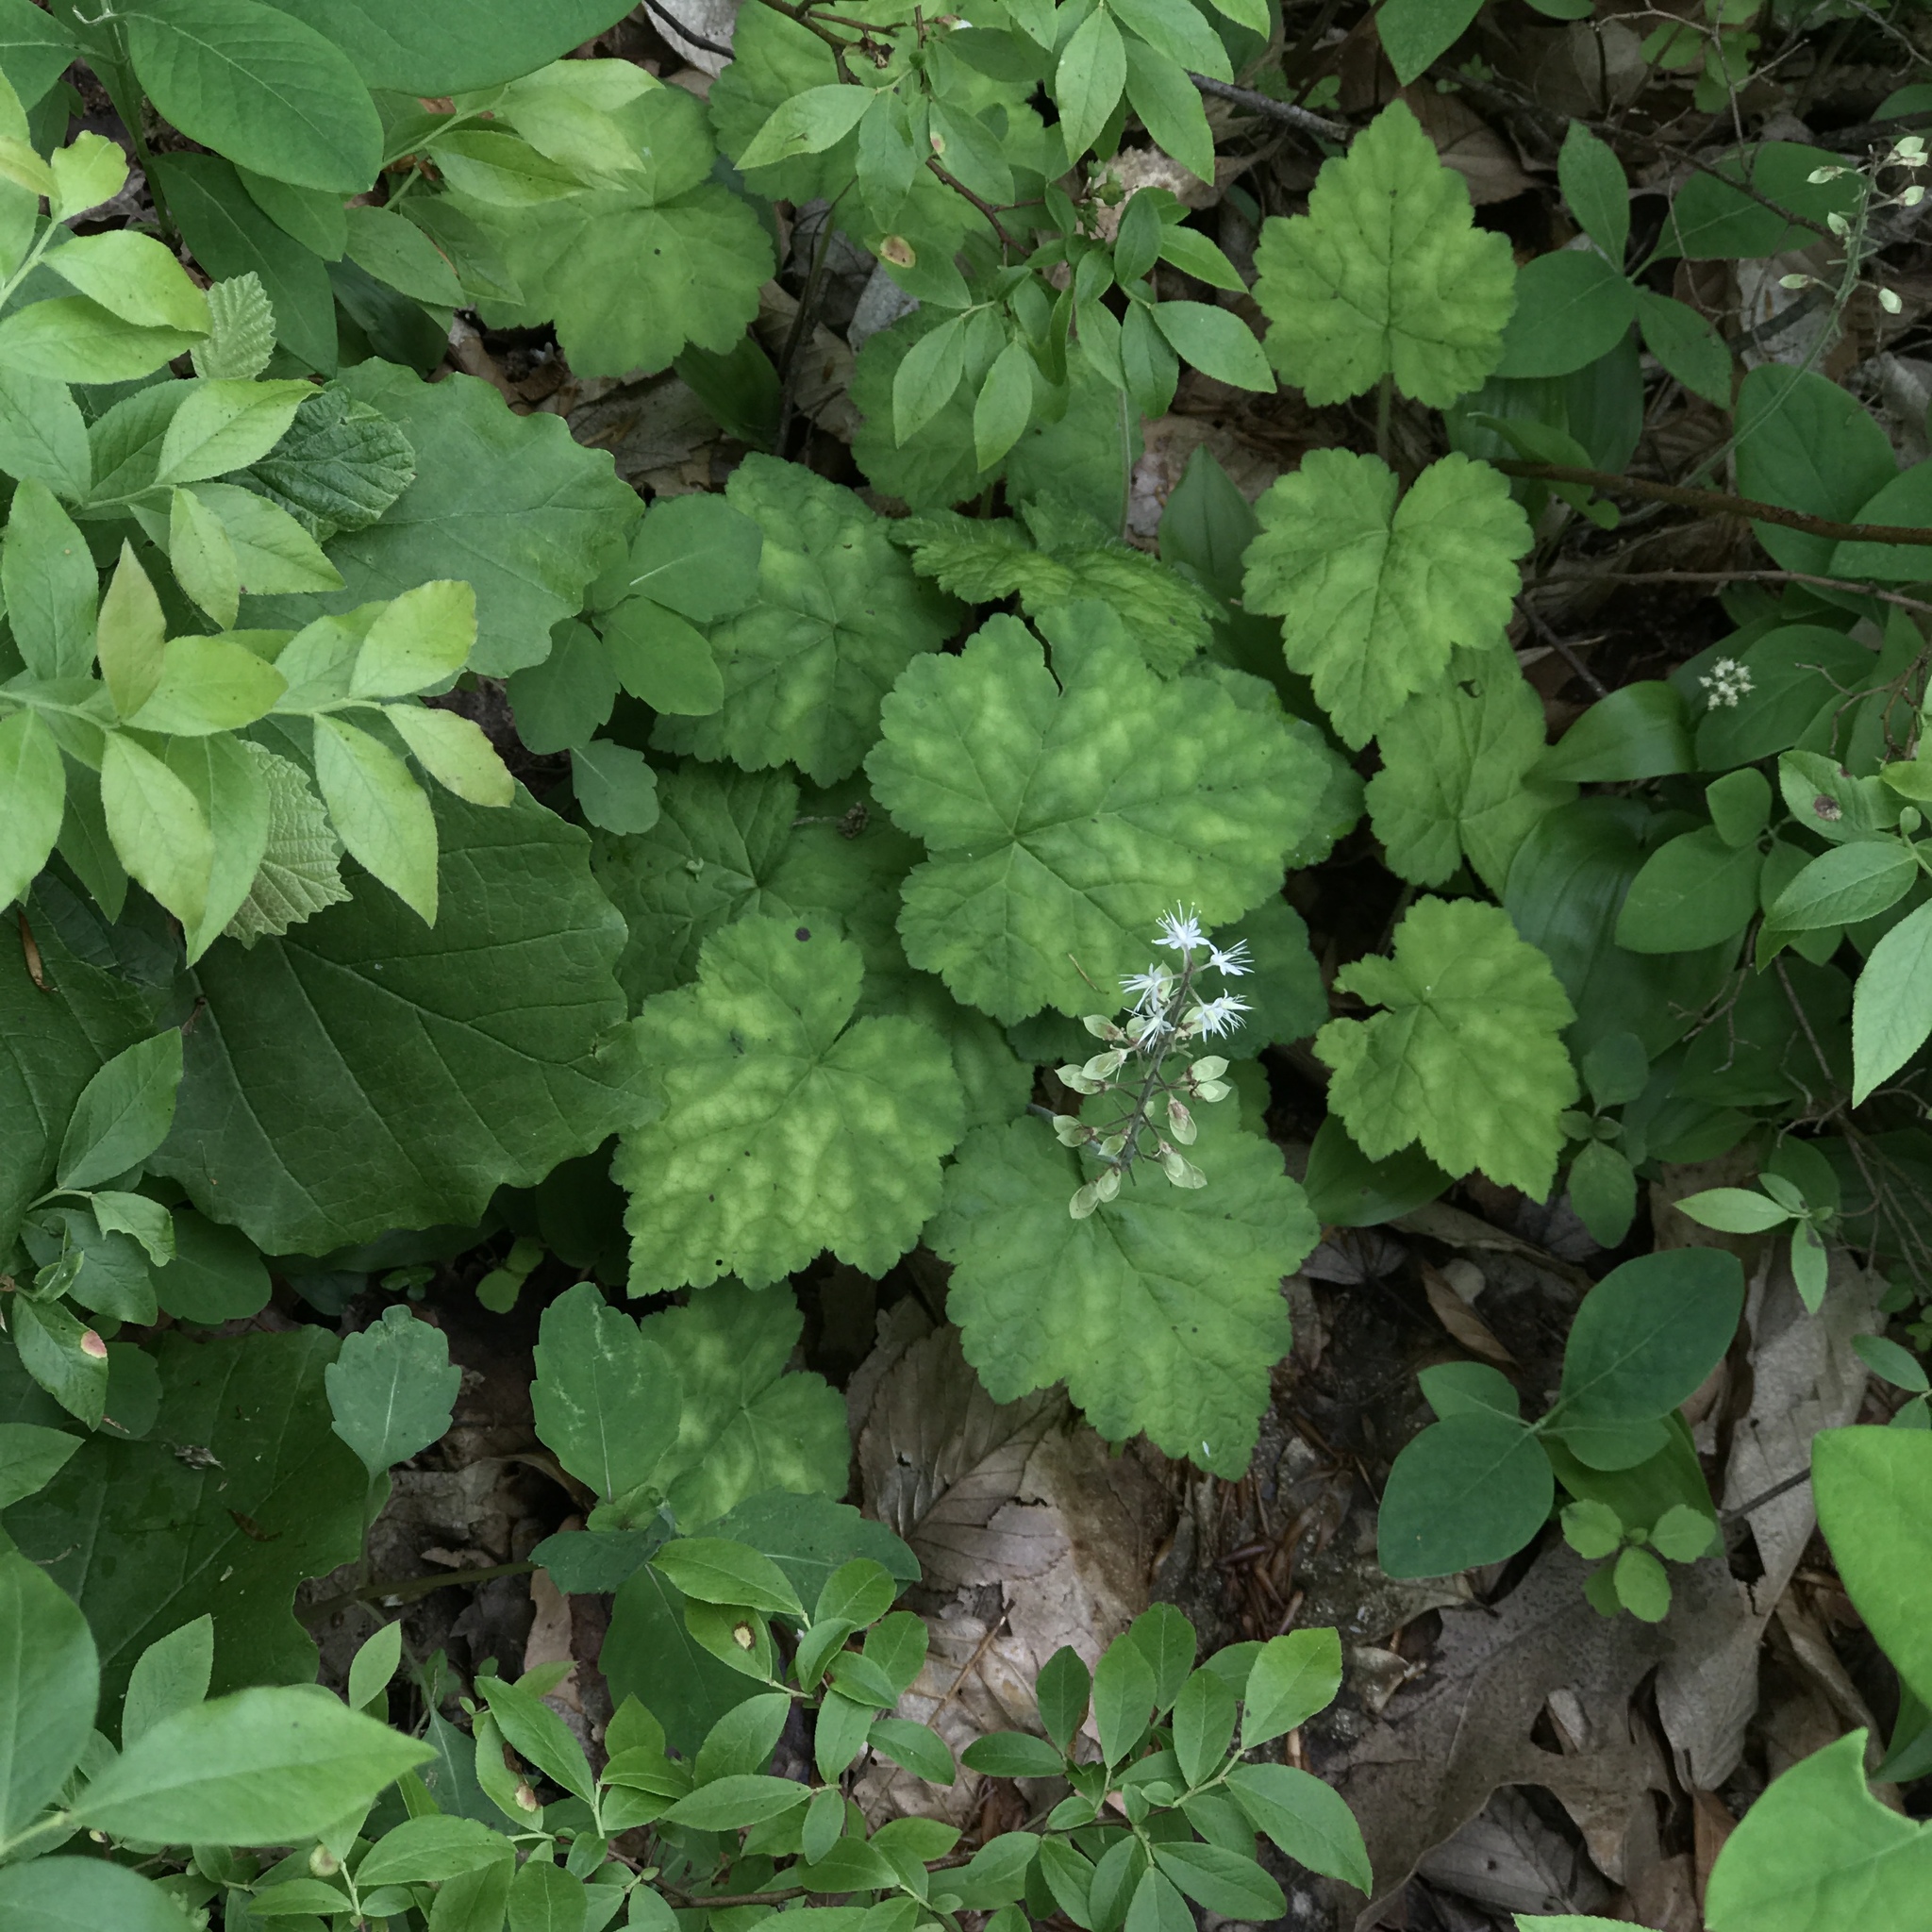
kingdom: Plantae
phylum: Tracheophyta
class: Magnoliopsida
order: Saxifragales
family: Saxifragaceae
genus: Tiarella
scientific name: Tiarella stolonifera
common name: Stoloniferous foamflower
